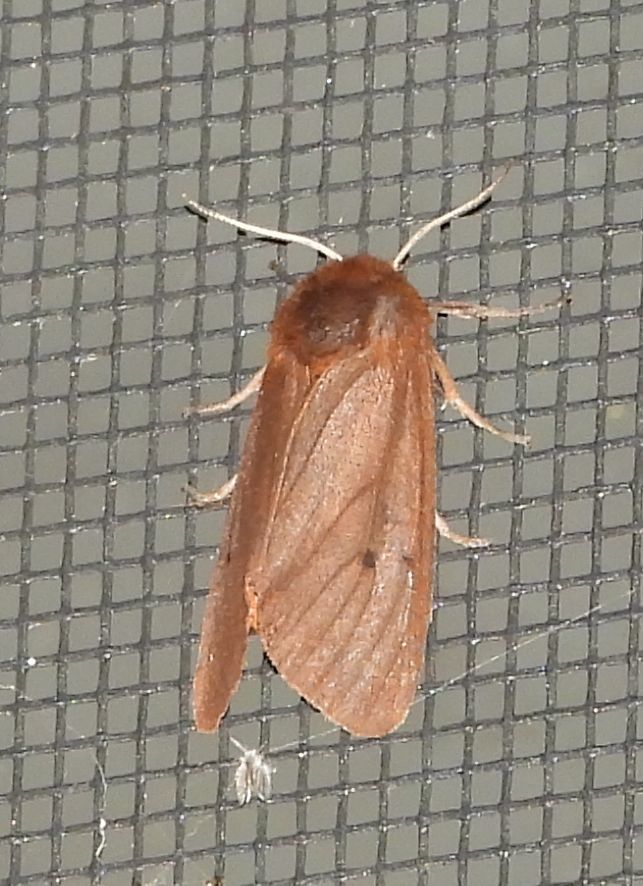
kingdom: Animalia
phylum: Arthropoda
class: Insecta
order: Lepidoptera
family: Erebidae
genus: Phragmatobia
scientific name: Phragmatobia fuliginosa
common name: Ruby tiger
